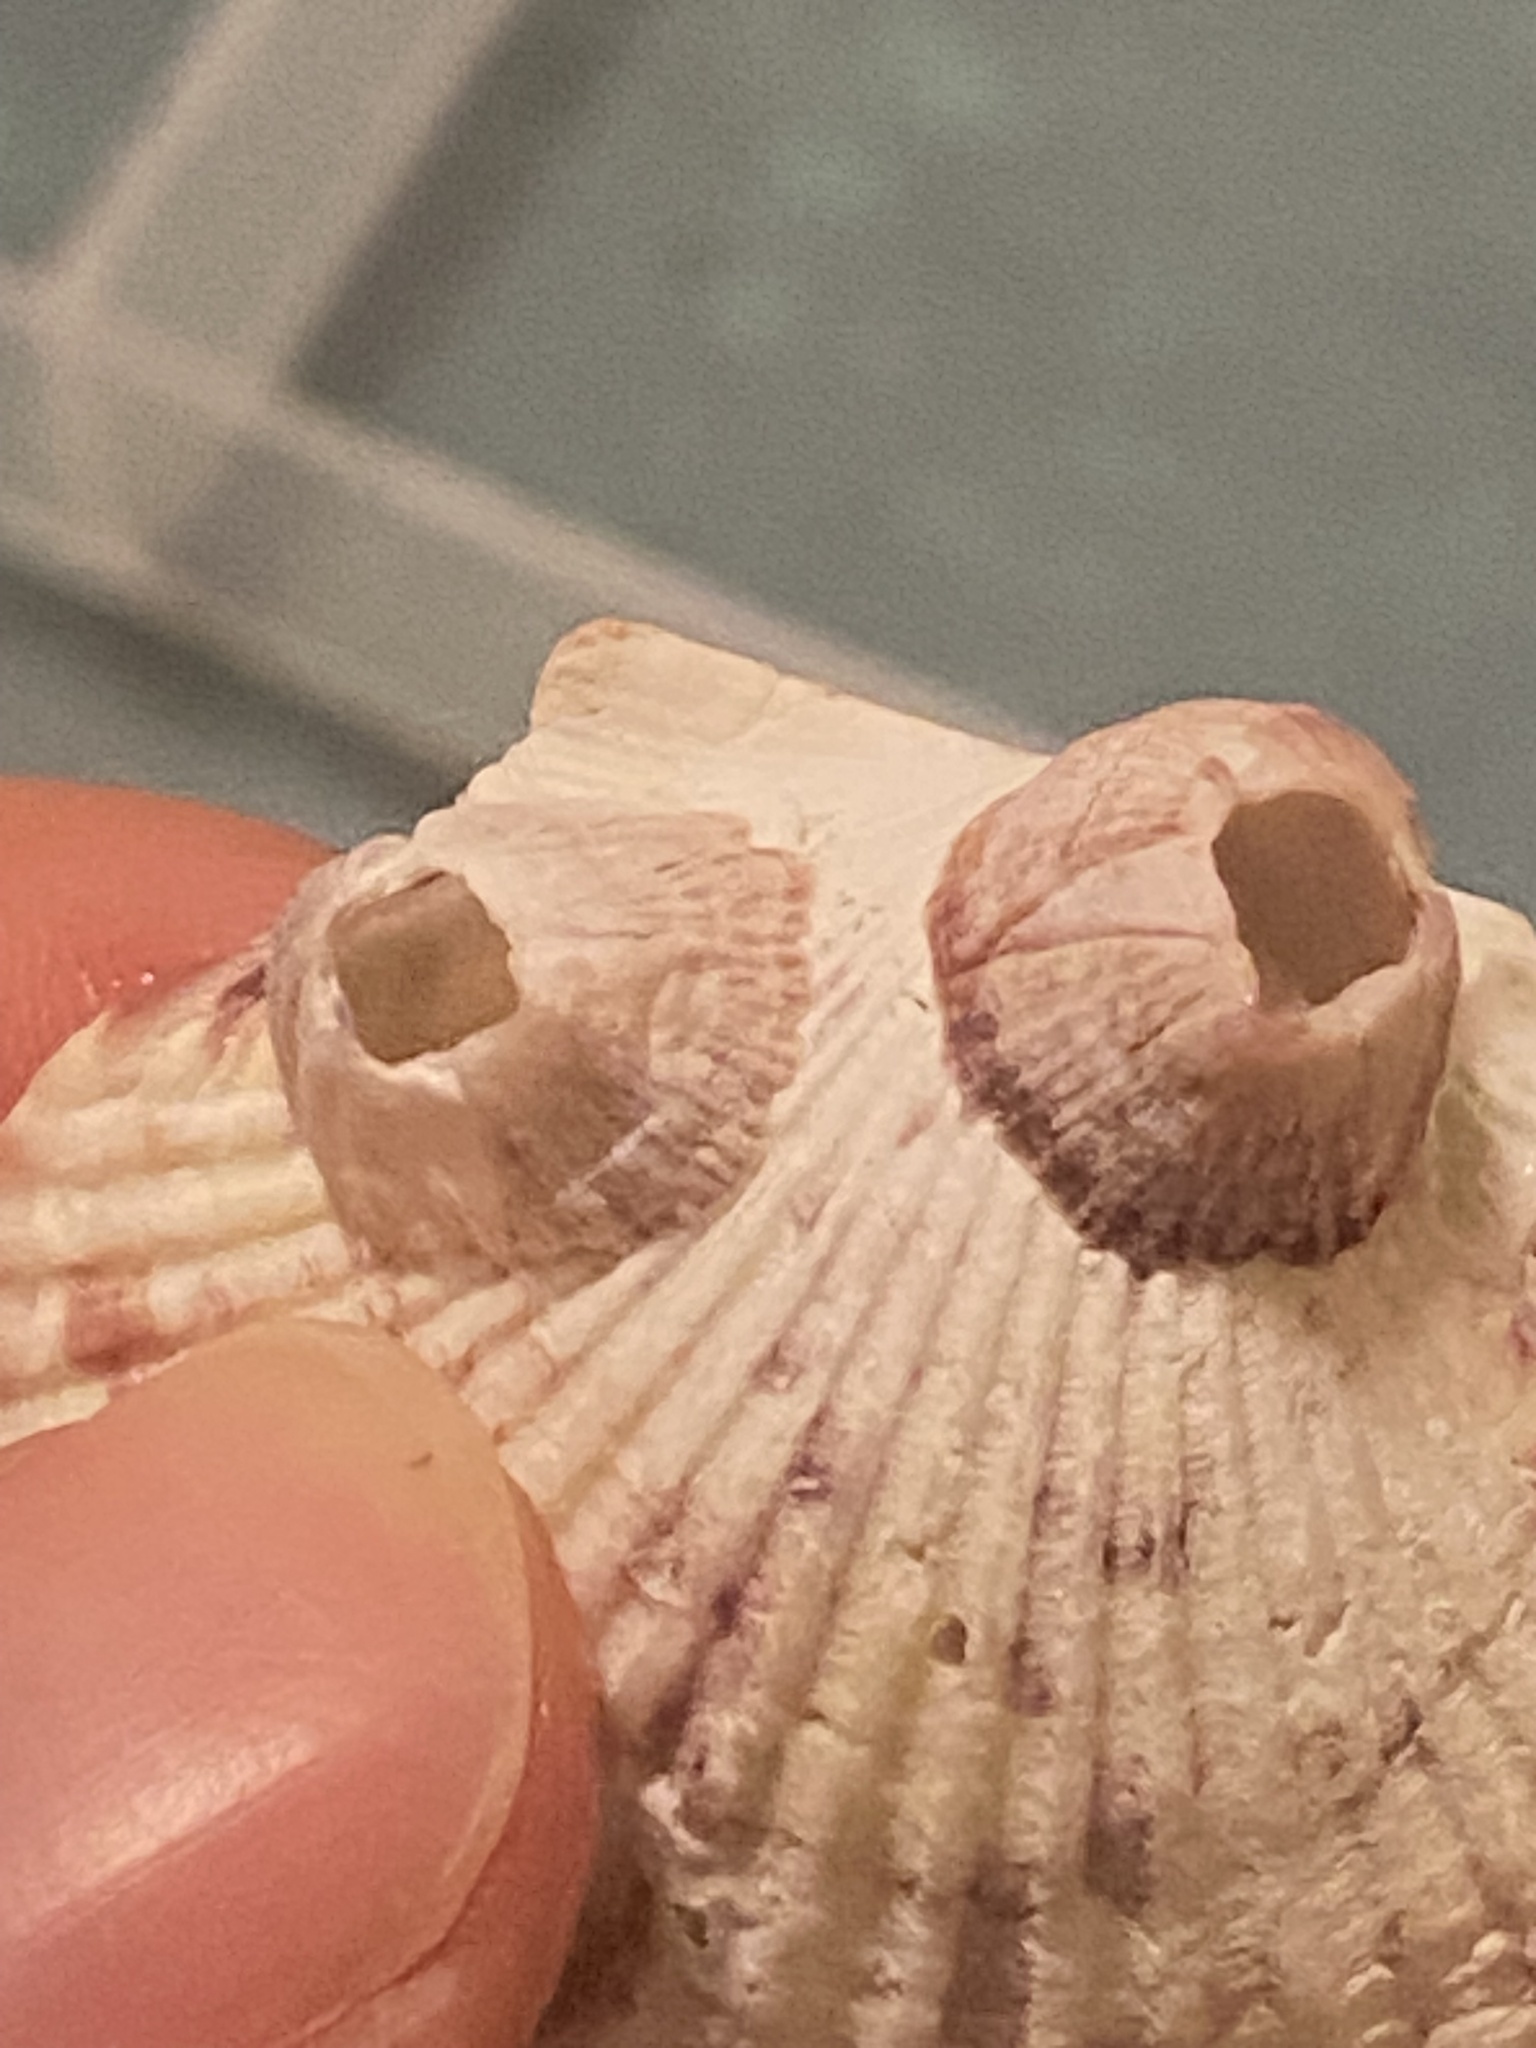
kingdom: Animalia
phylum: Arthropoda
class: Maxillopoda
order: Sessilia
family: Balanidae
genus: Balanus
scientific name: Balanus trigonus
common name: Triangle barnacle
